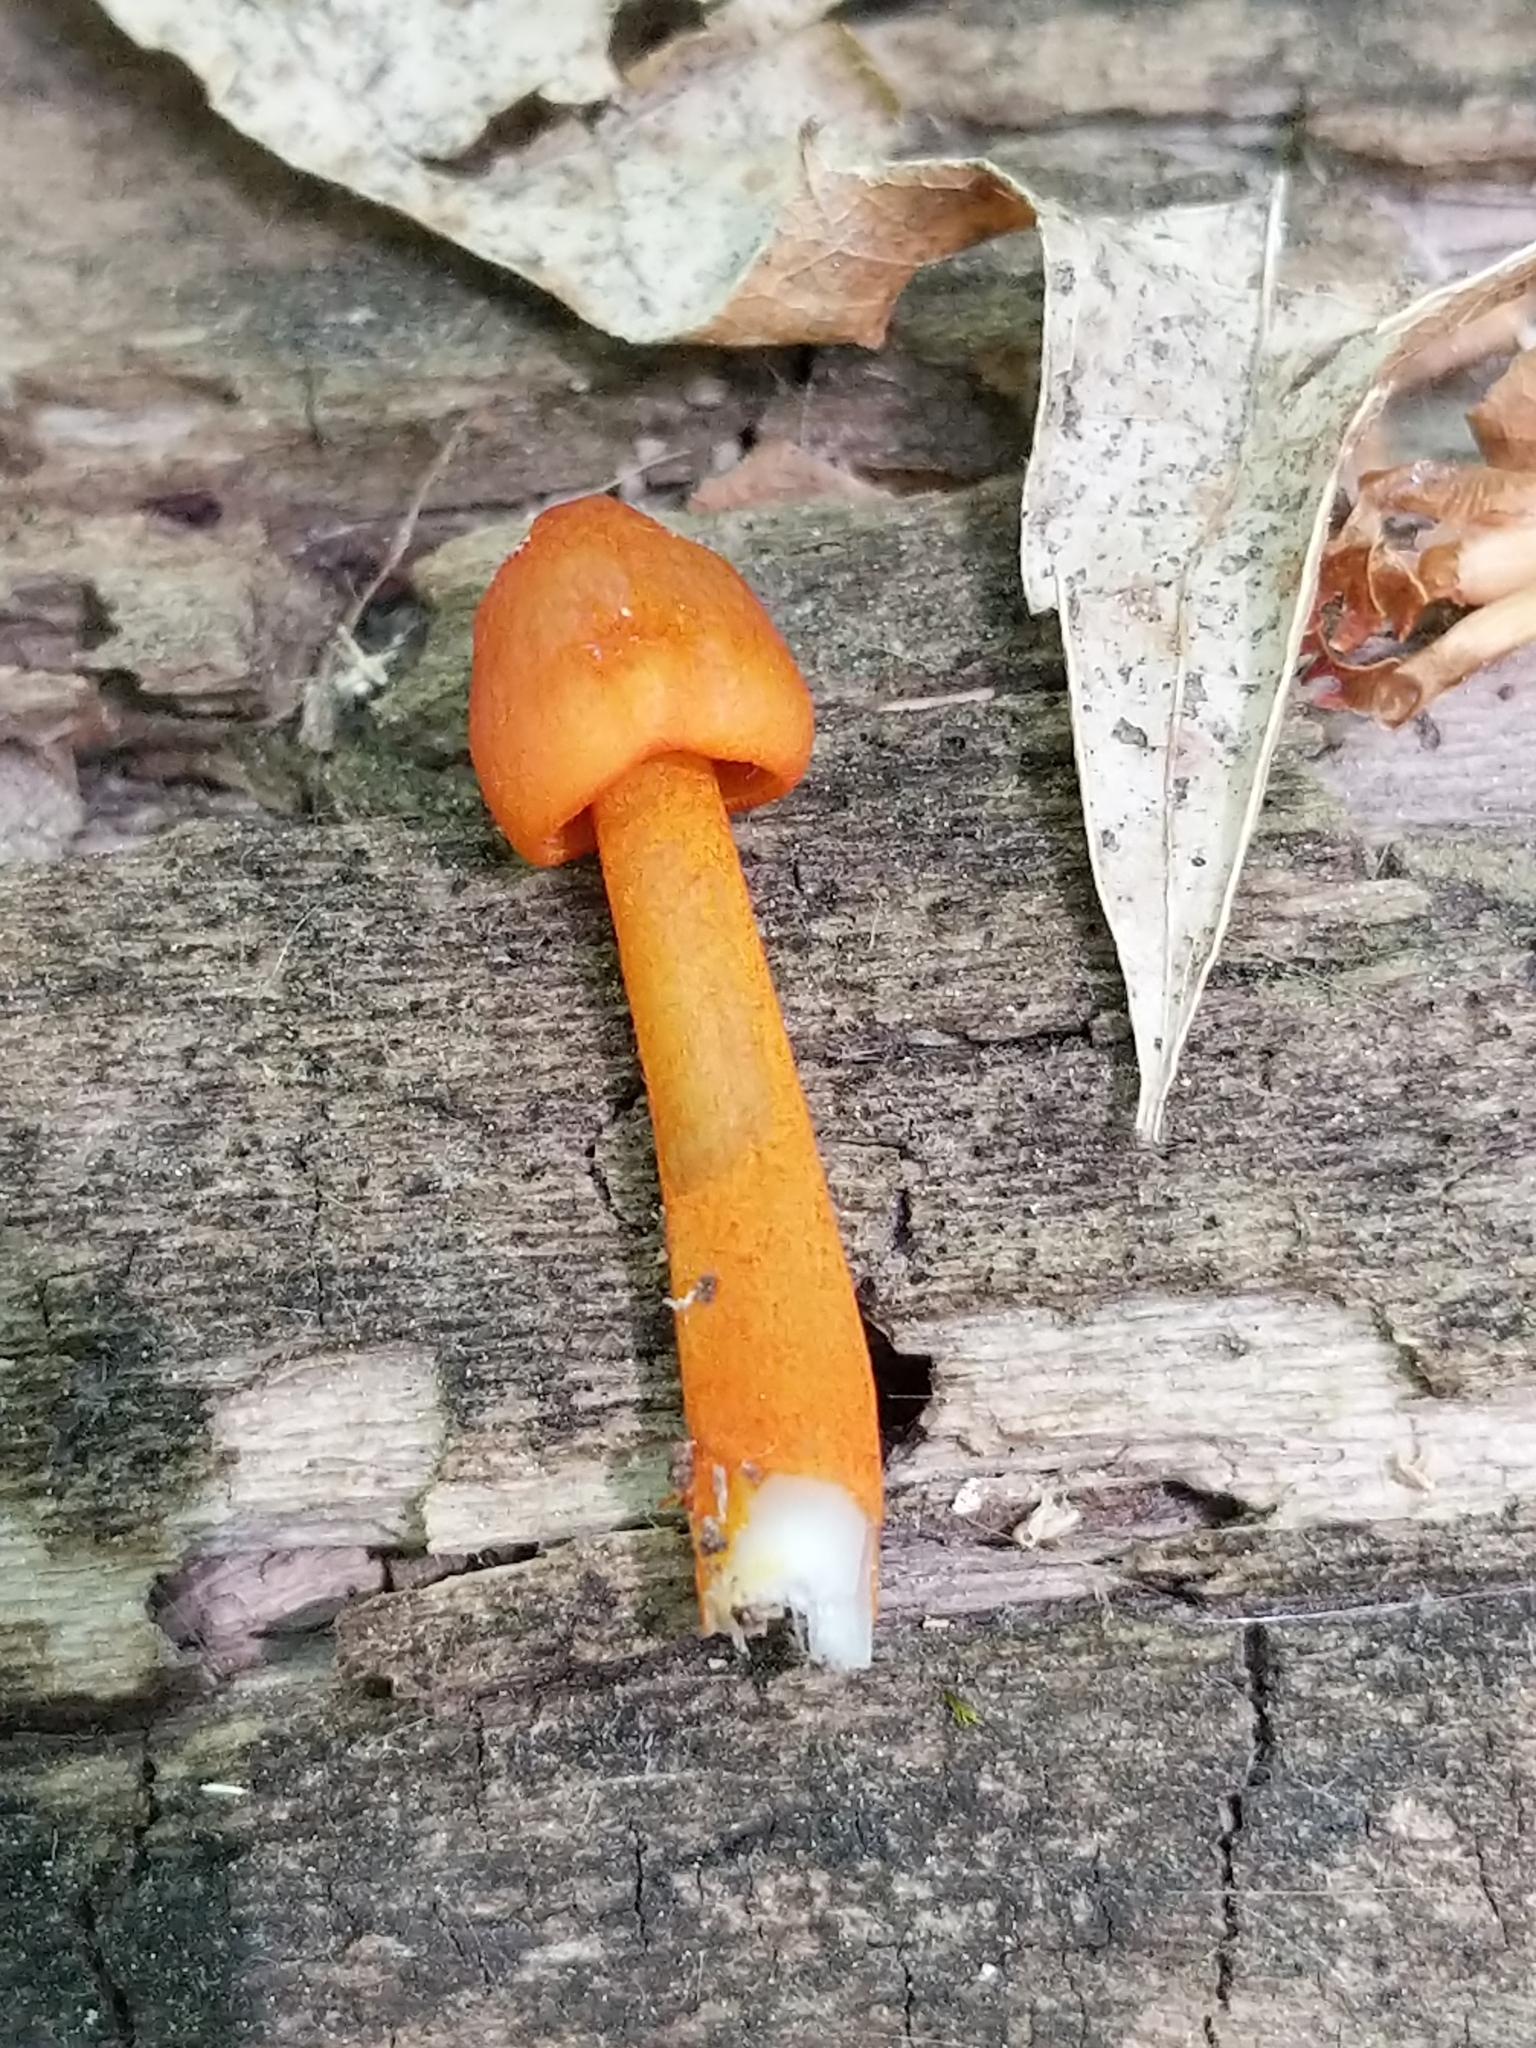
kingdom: Fungi
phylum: Basidiomycota
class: Agaricomycetes
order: Agaricales
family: Mycenaceae
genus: Mycena
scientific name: Mycena leaiana
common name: Orange mycena
